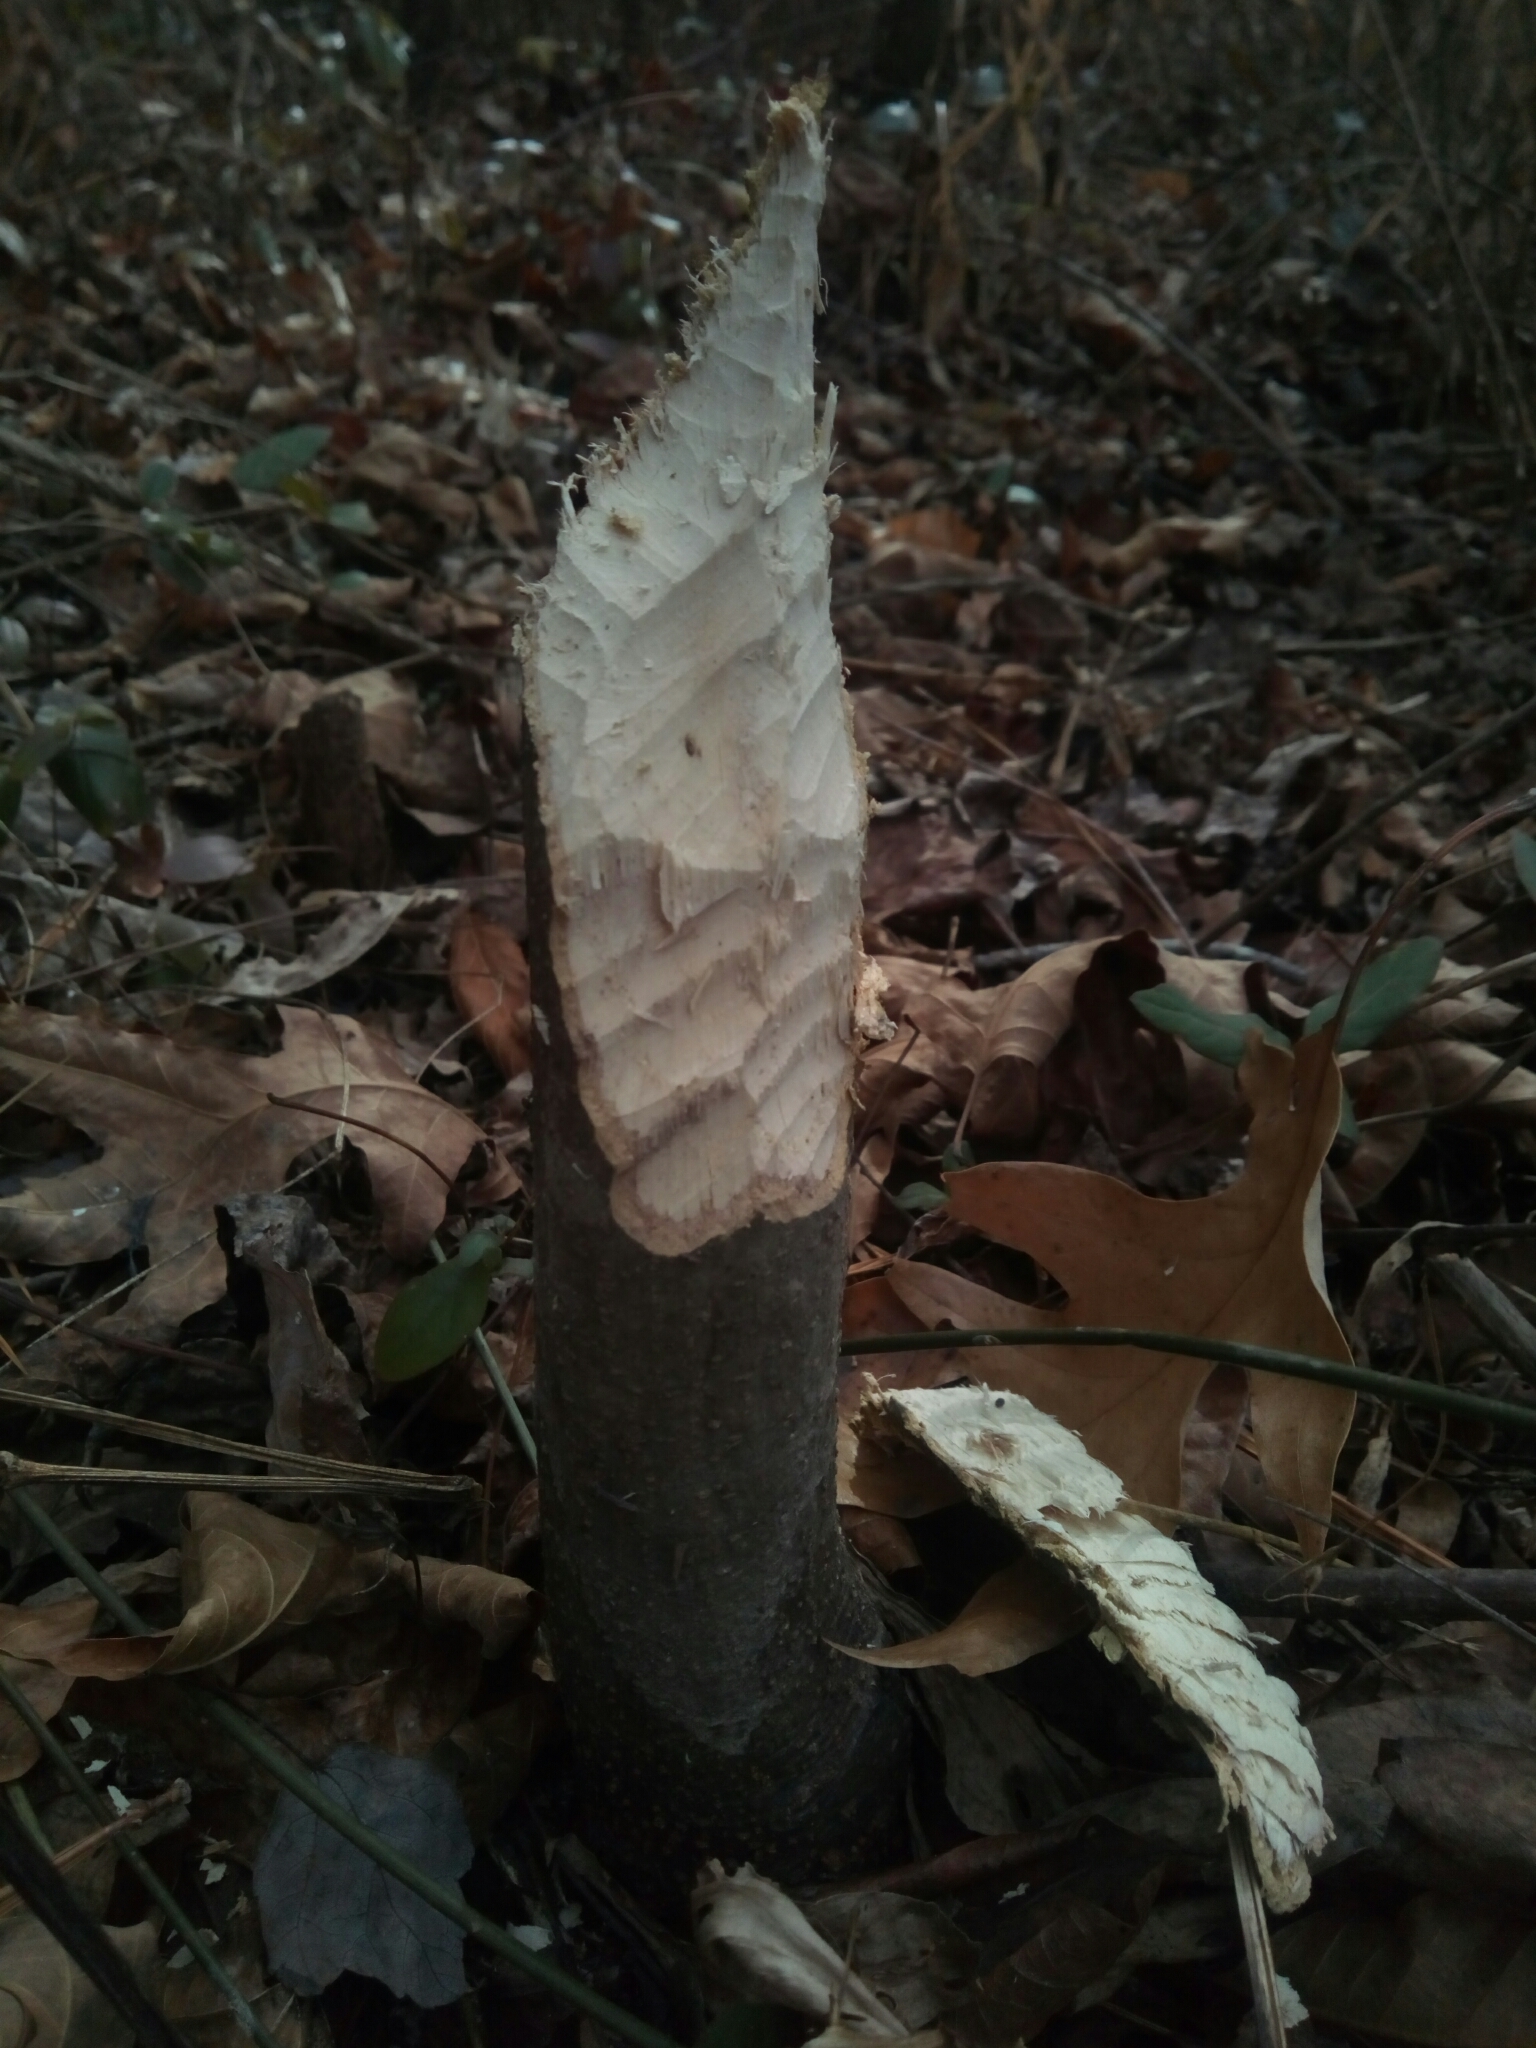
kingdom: Animalia
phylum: Chordata
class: Mammalia
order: Rodentia
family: Castoridae
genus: Castor
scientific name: Castor canadensis
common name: American beaver
